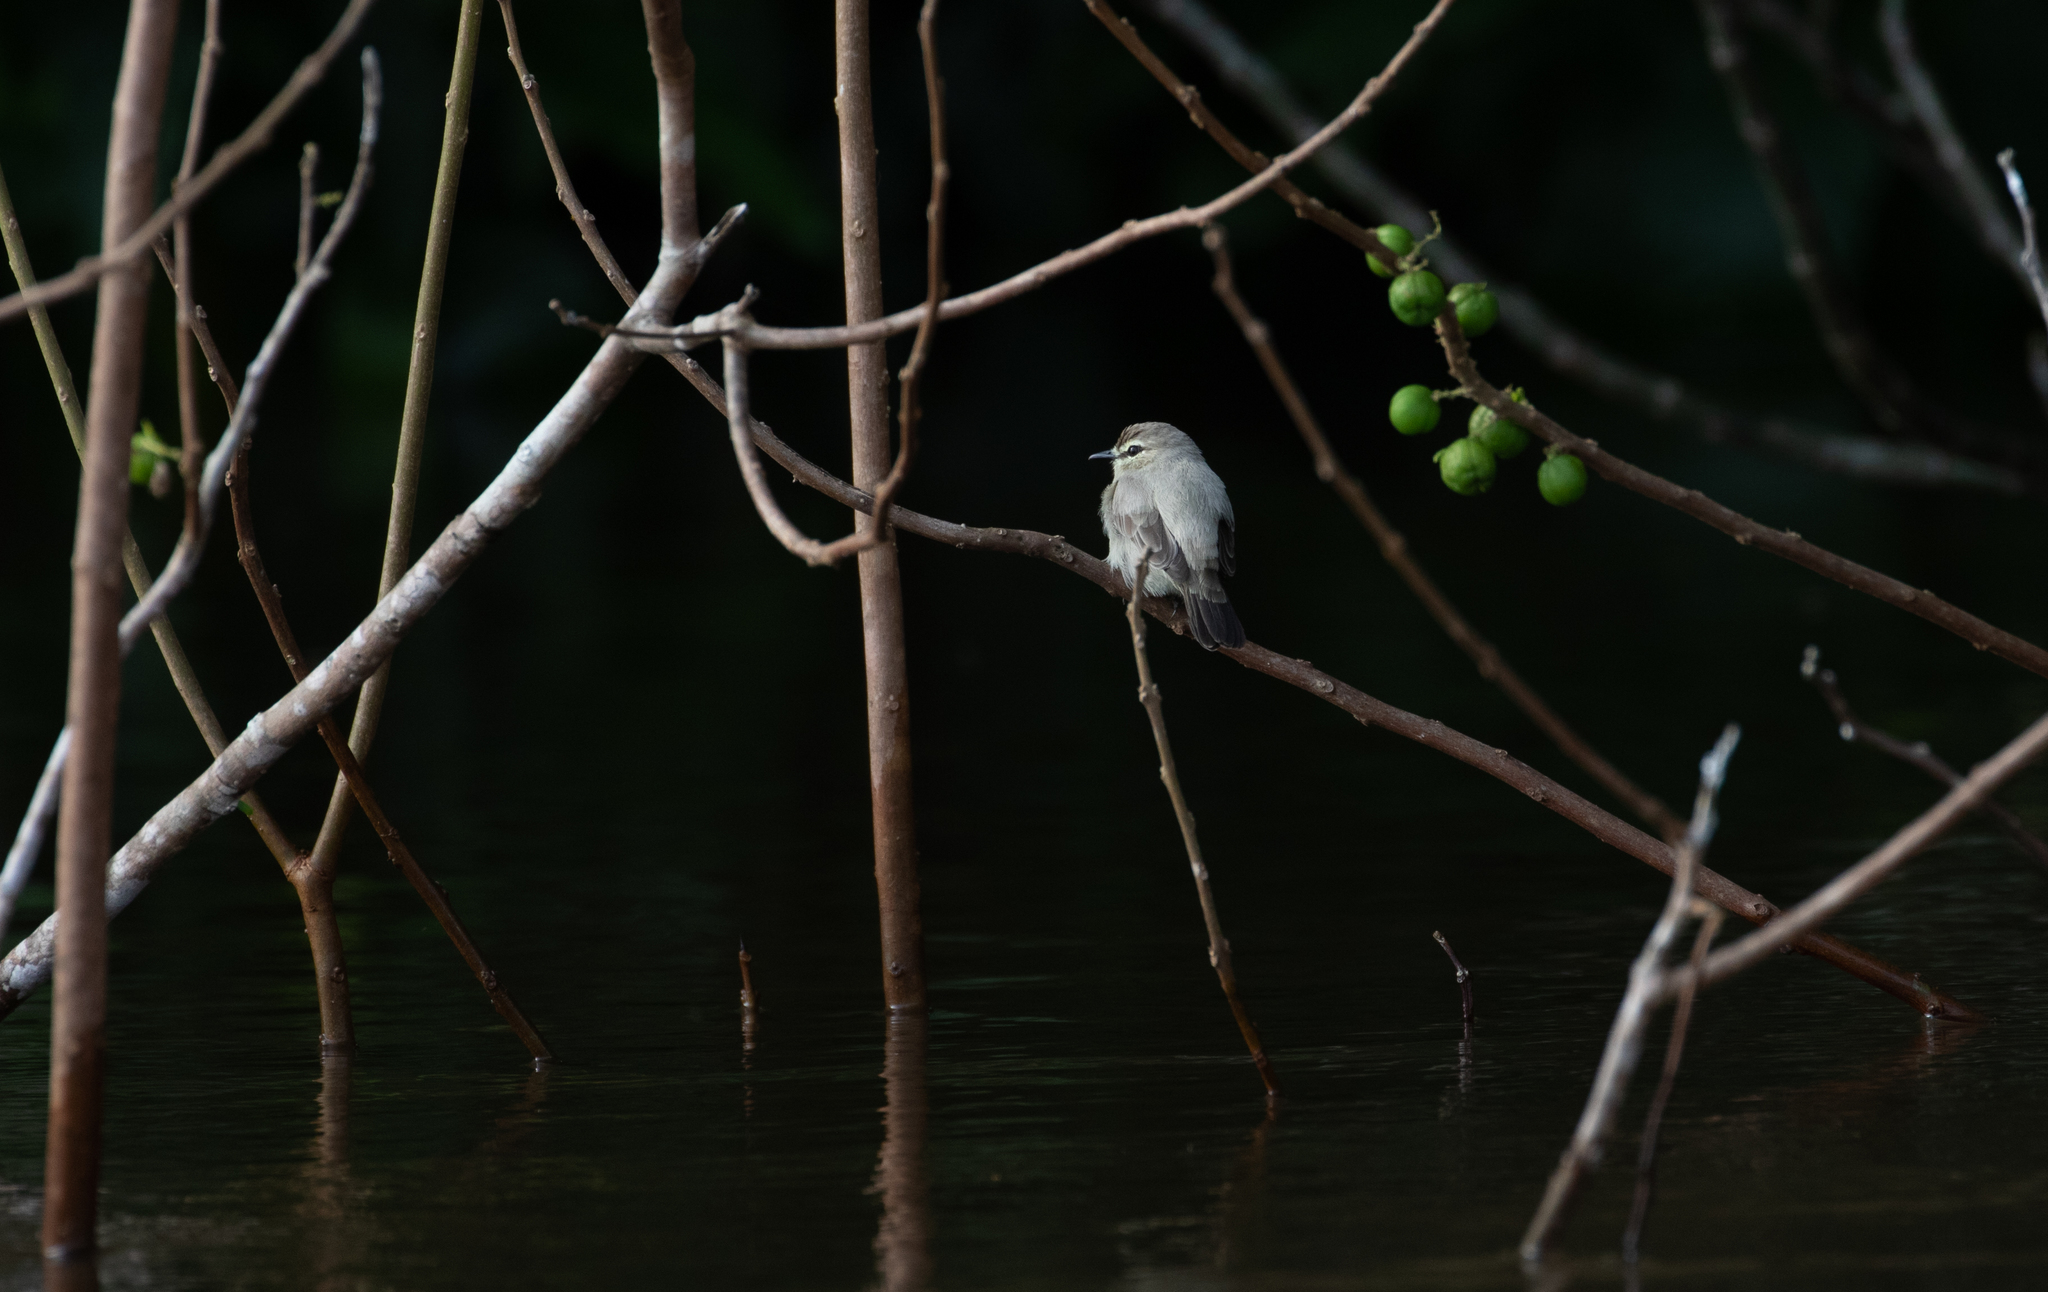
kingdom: Animalia
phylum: Chordata
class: Aves
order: Passeriformes
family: Tyrannidae
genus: Ochthornis
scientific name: Ochthornis littoralis
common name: Drab water tyrant
